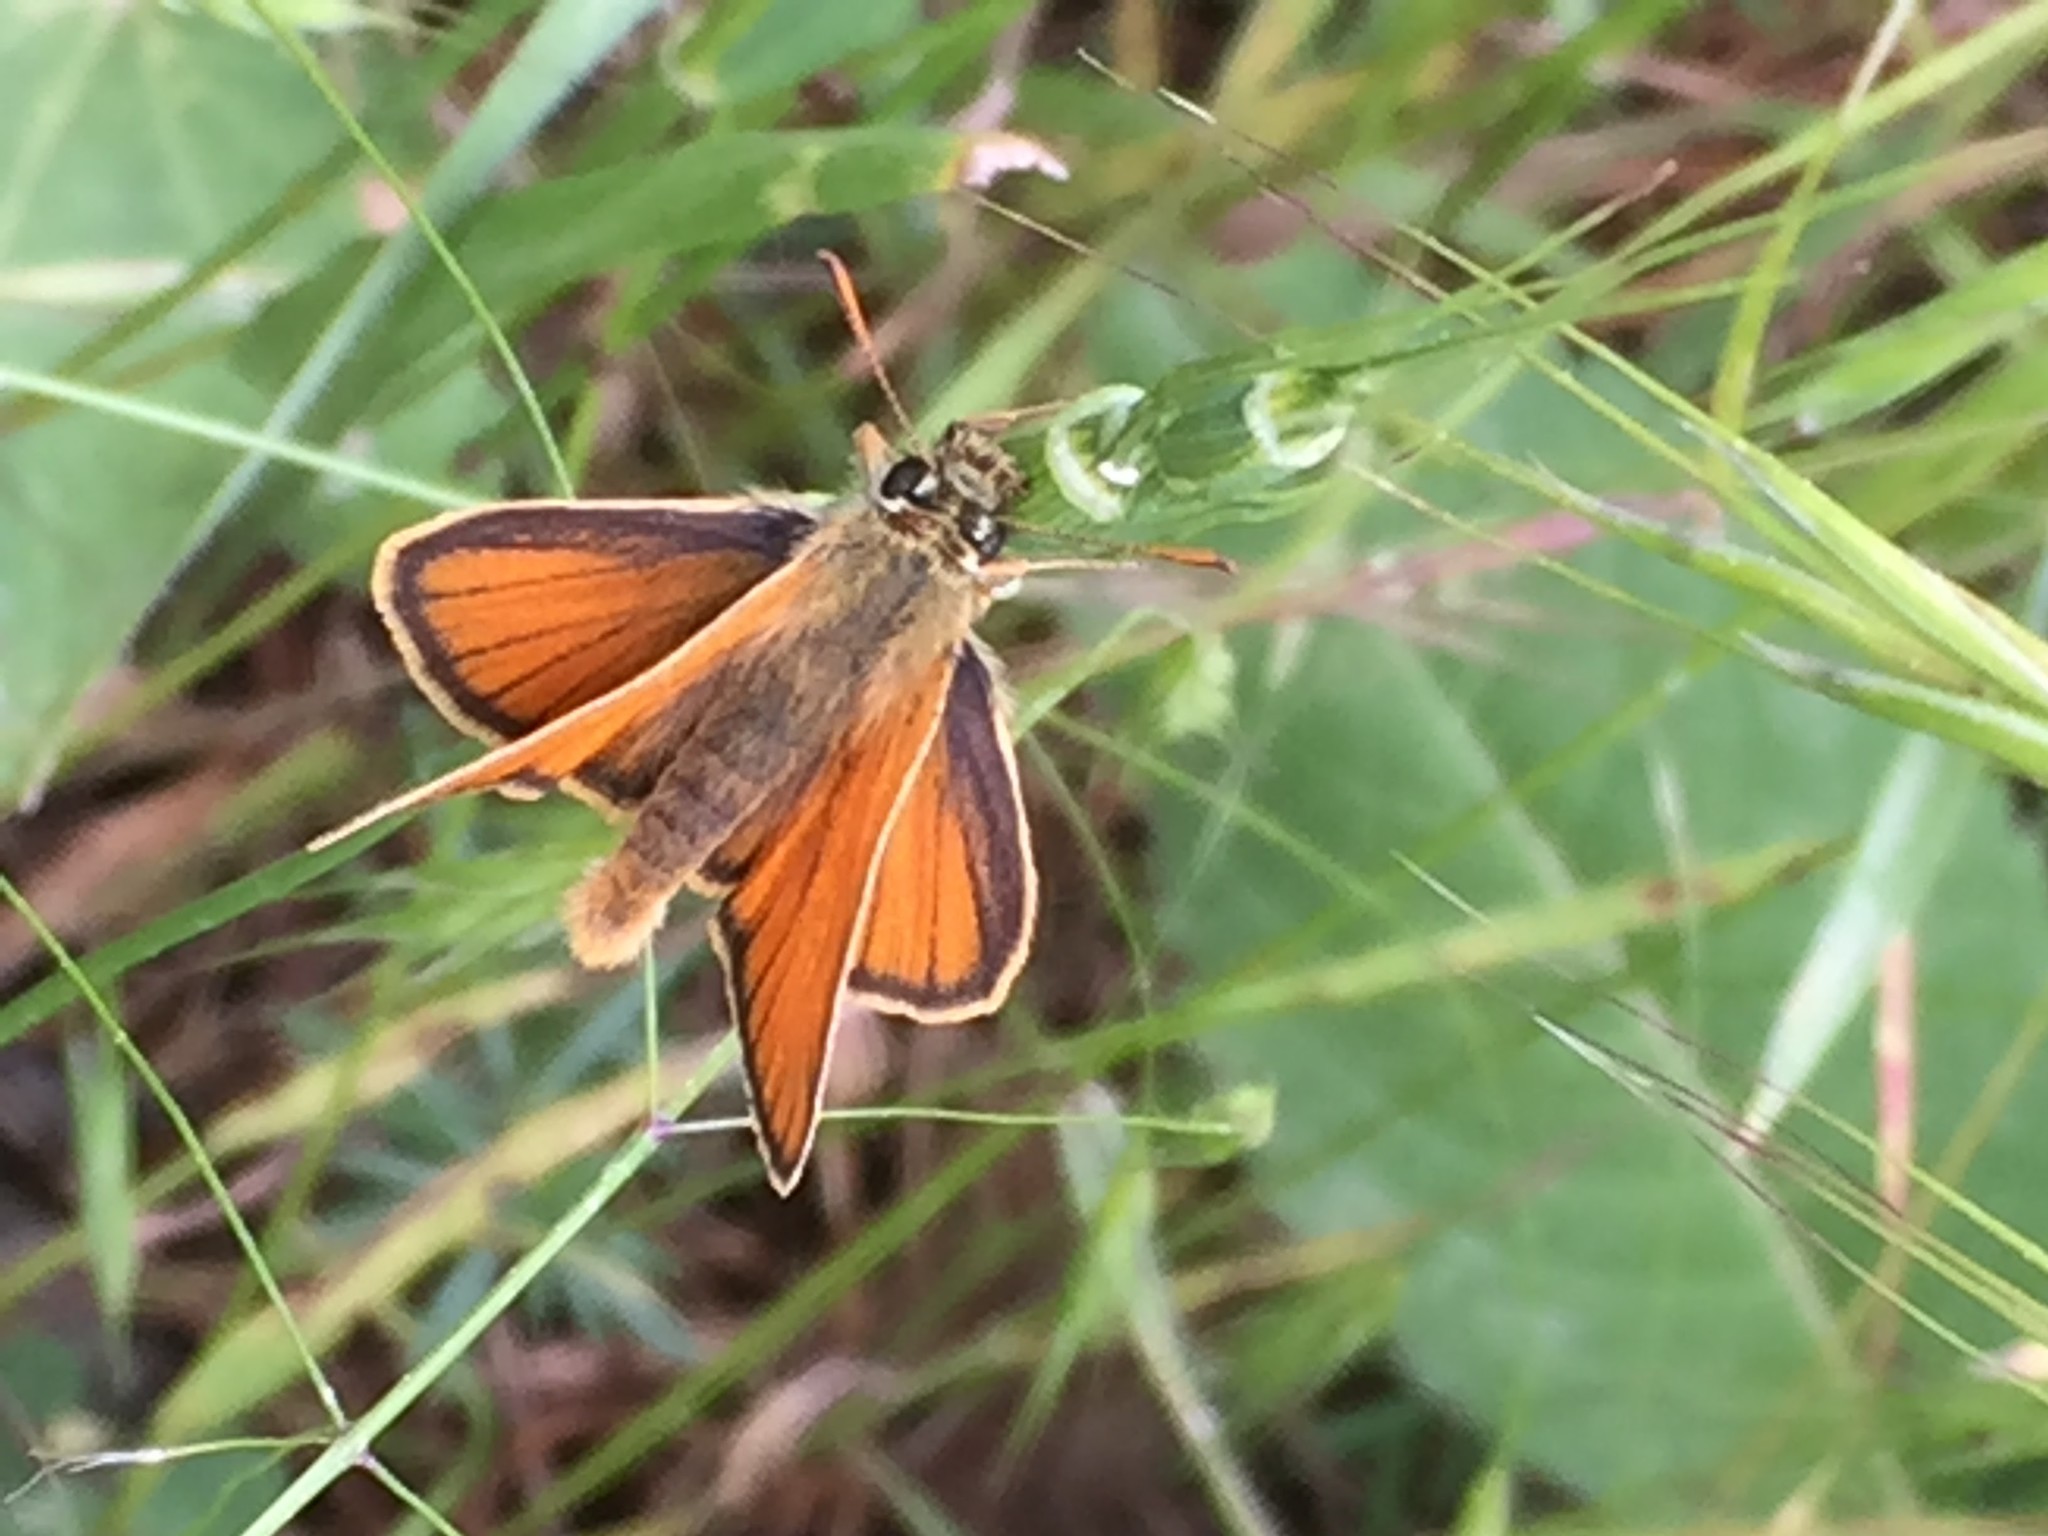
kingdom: Animalia
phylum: Arthropoda
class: Insecta
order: Lepidoptera
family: Hesperiidae
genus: Thymelicus
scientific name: Thymelicus sylvestris
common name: Small skipper
